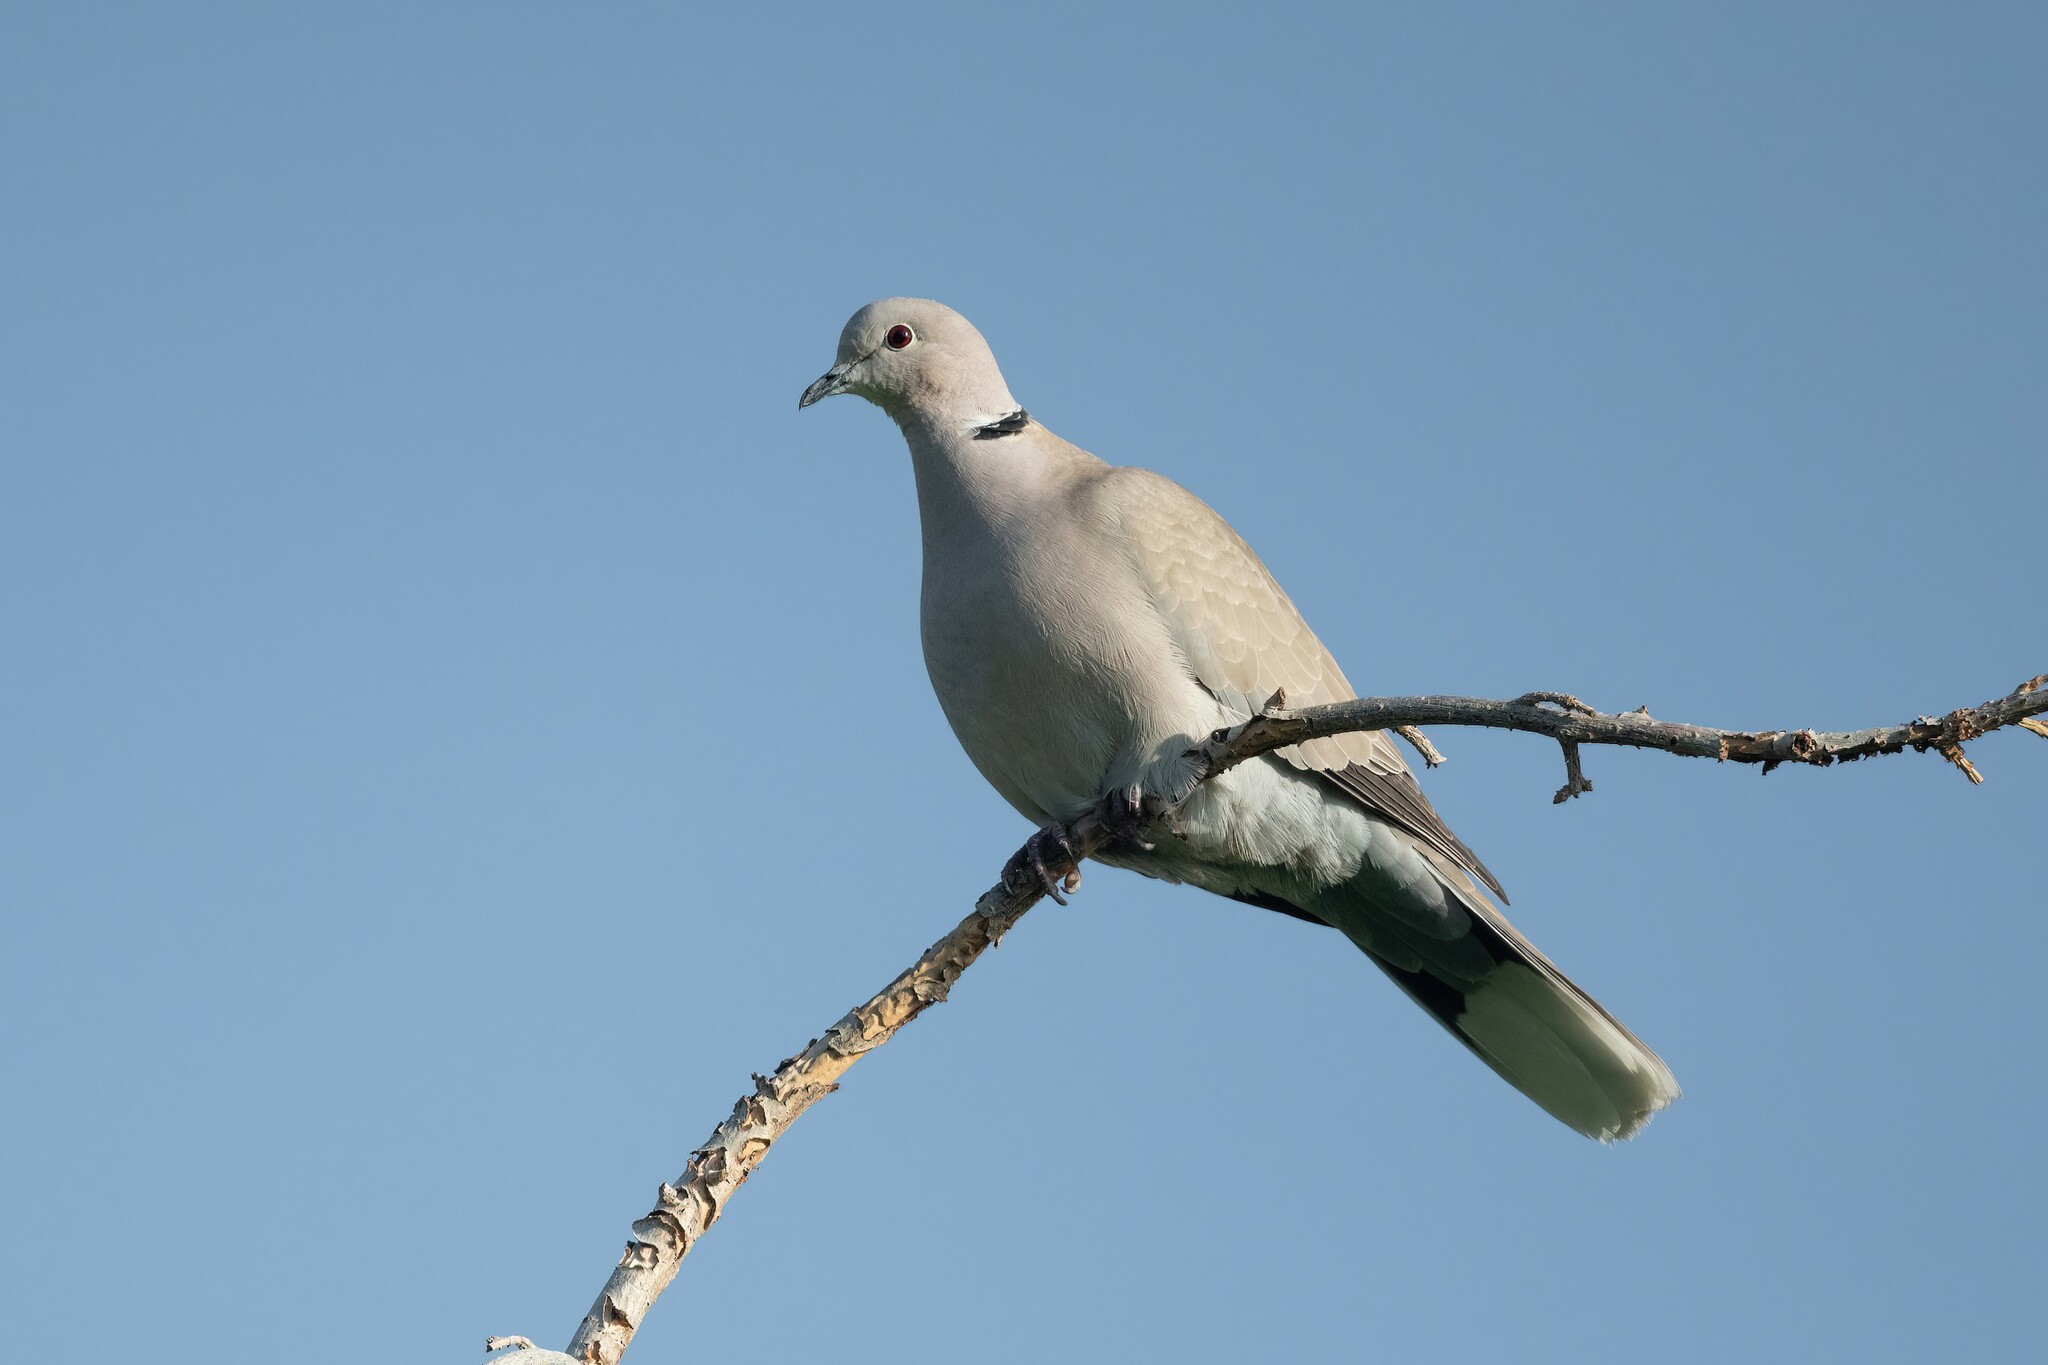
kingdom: Animalia
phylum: Chordata
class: Aves
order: Columbiformes
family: Columbidae
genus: Streptopelia
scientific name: Streptopelia decaocto
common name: Eurasian collared dove
